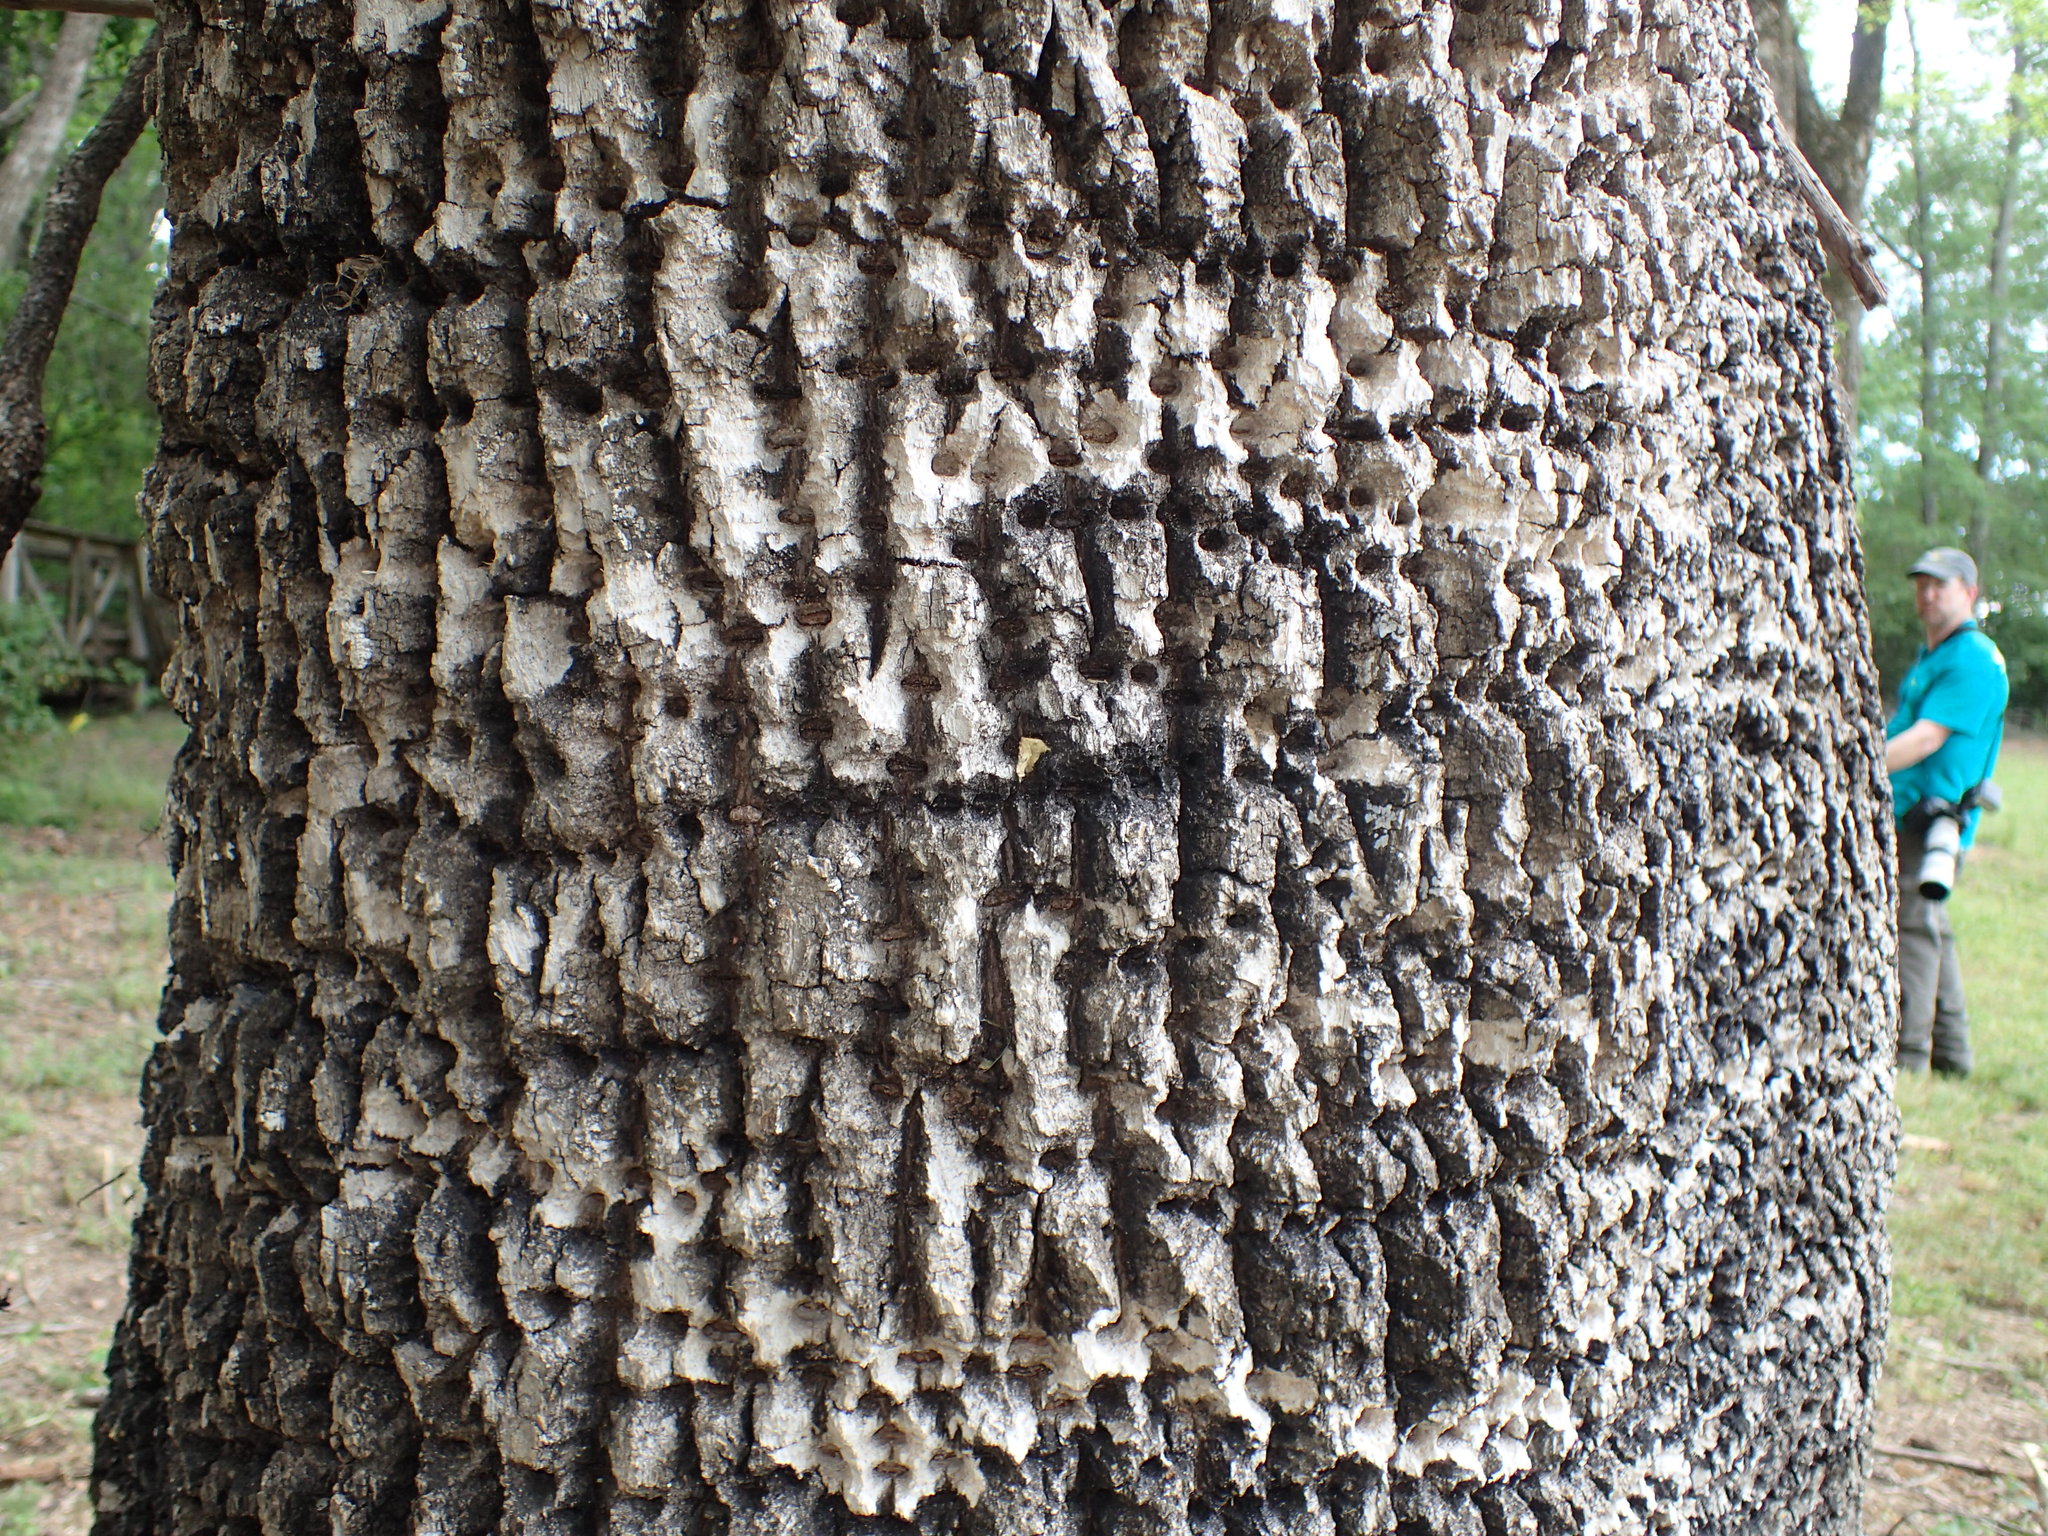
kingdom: Animalia
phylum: Chordata
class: Aves
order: Piciformes
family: Picidae
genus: Sphyrapicus
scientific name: Sphyrapicus varius
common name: Yellow-bellied sapsucker
